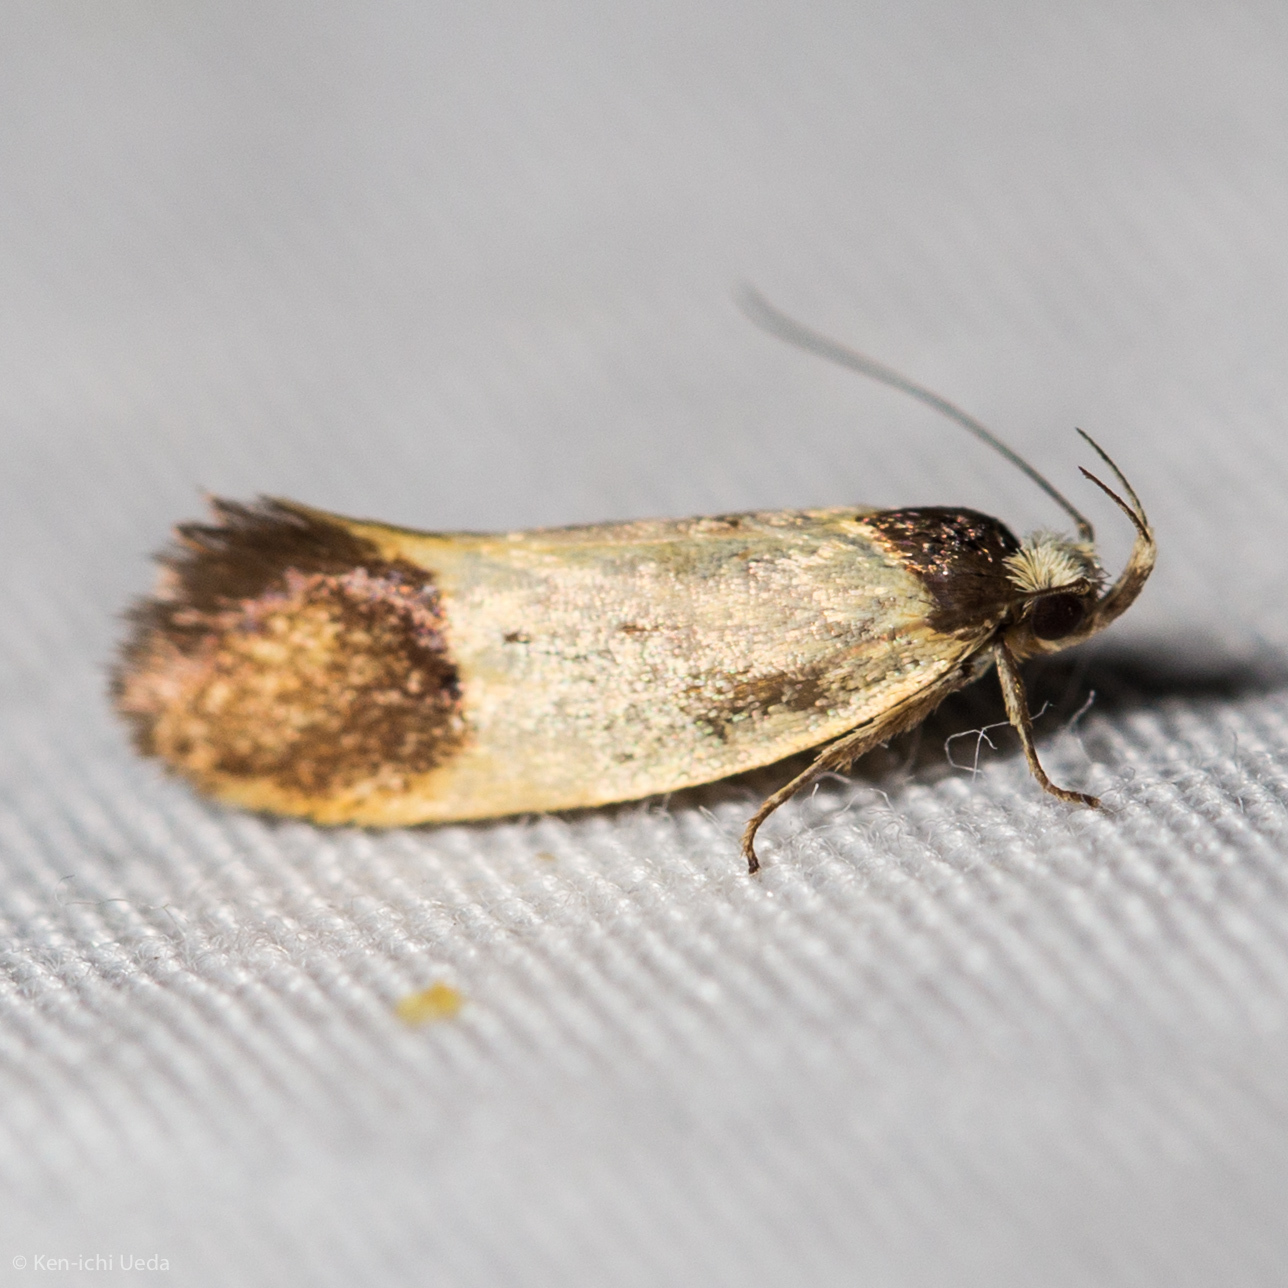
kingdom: Animalia
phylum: Arthropoda
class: Insecta
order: Lepidoptera
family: Oecophoridae
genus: Merocroca
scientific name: Merocroca automima
